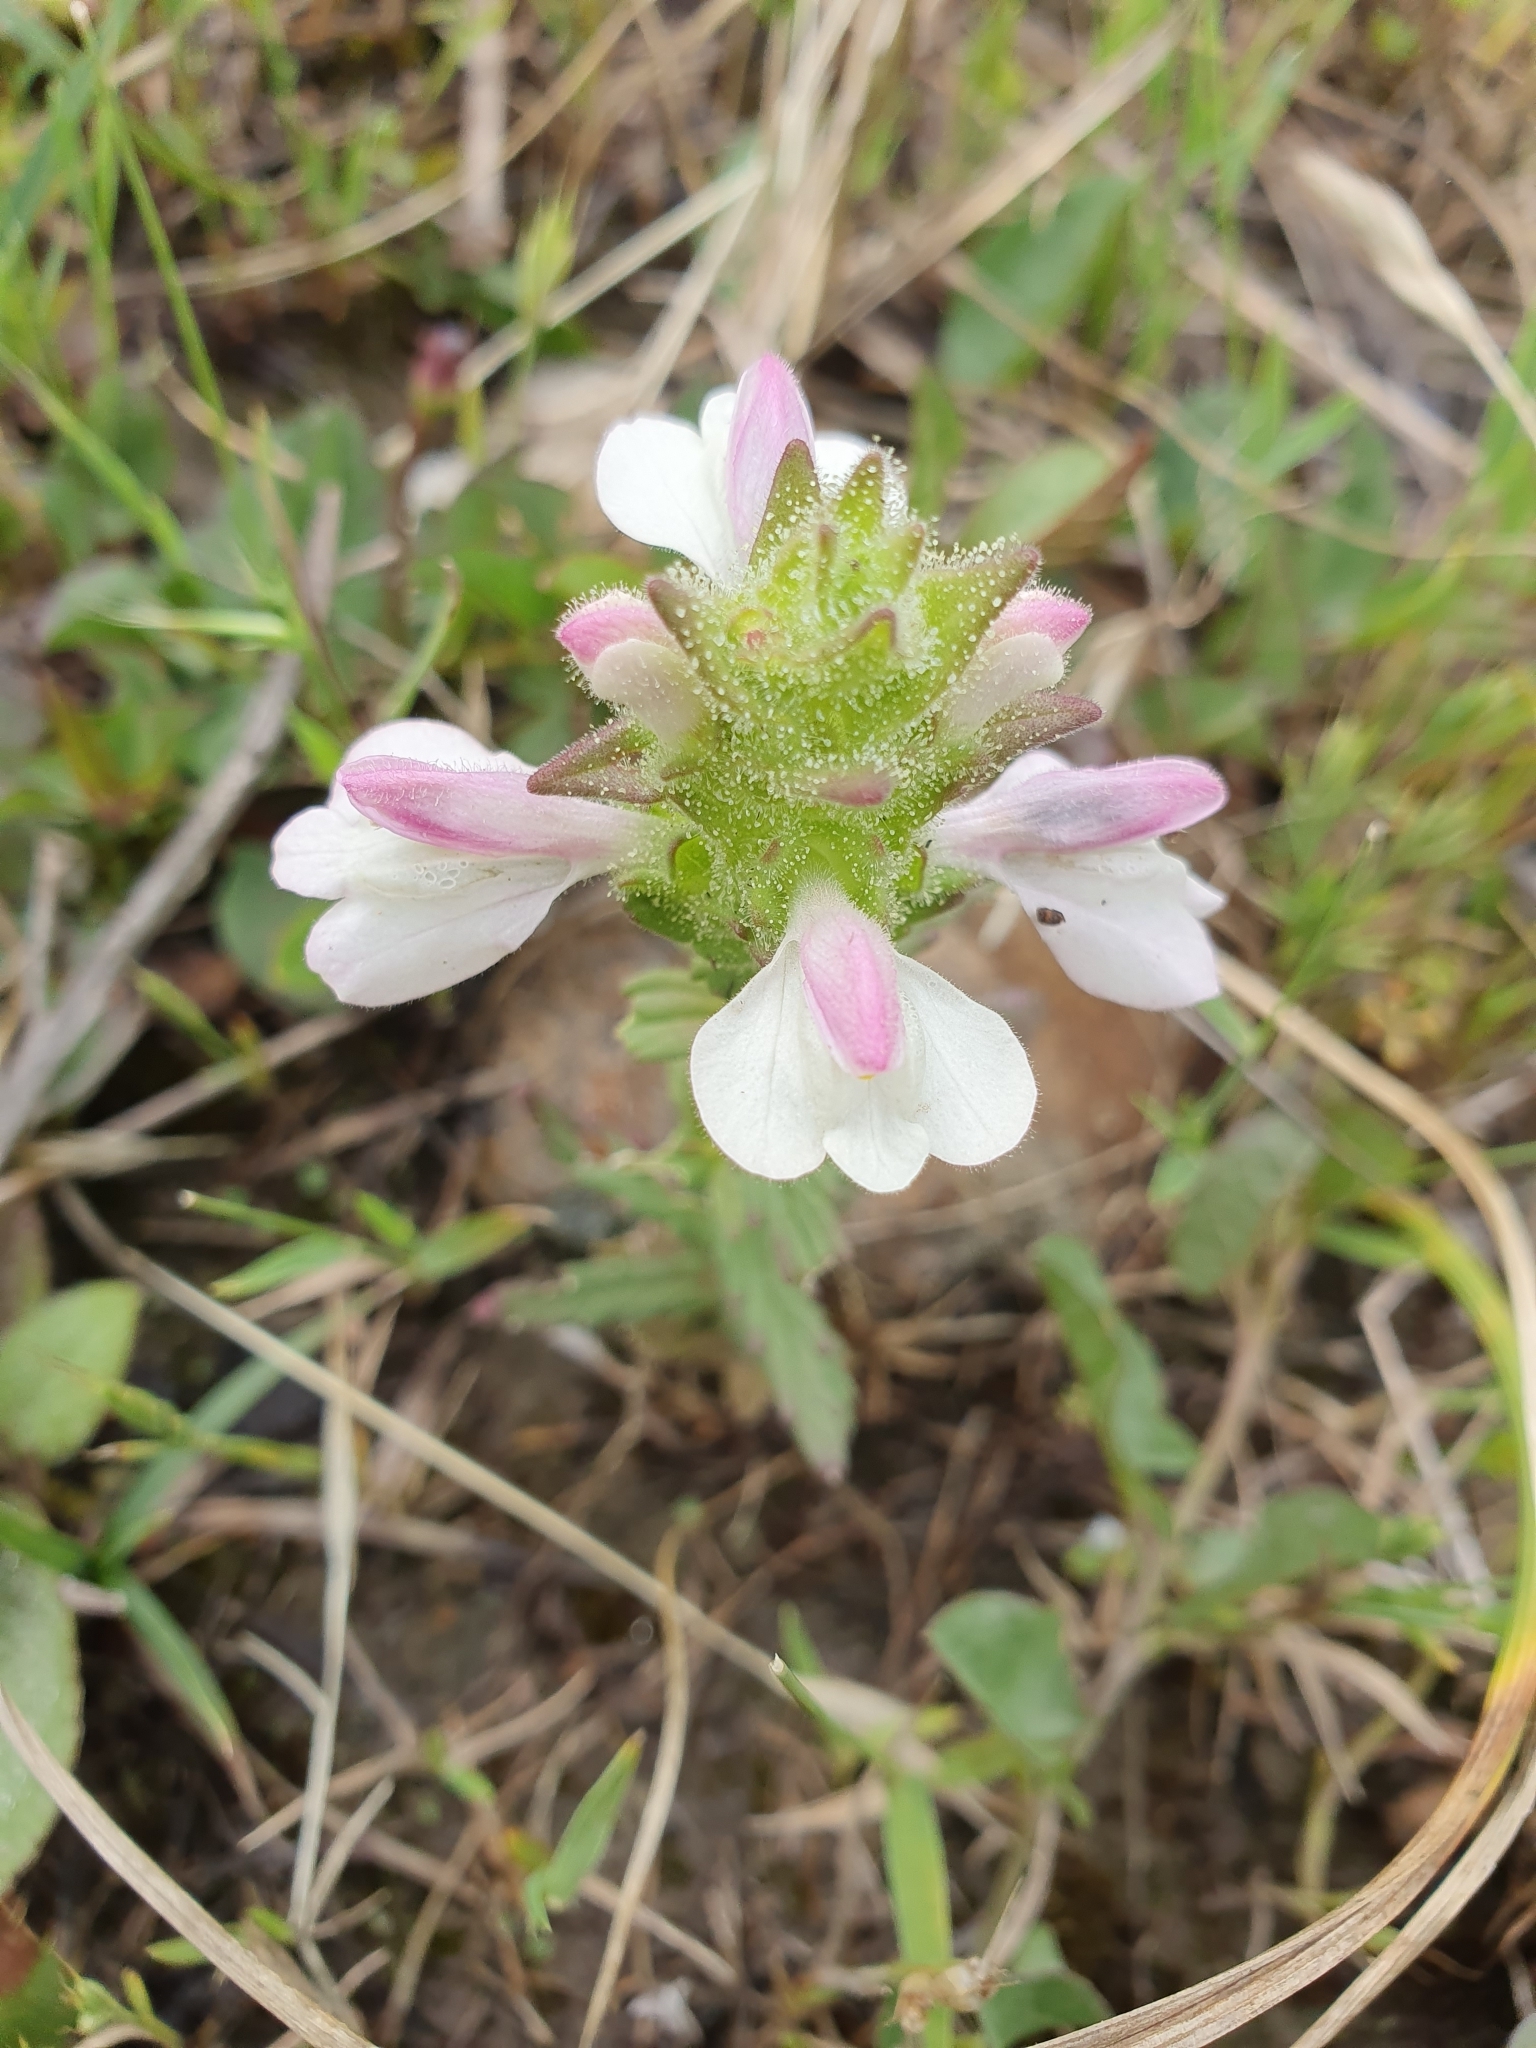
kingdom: Plantae
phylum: Tracheophyta
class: Magnoliopsida
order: Lamiales
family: Orobanchaceae
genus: Bellardia
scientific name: Bellardia trixago
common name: Mediterranean lineseed
